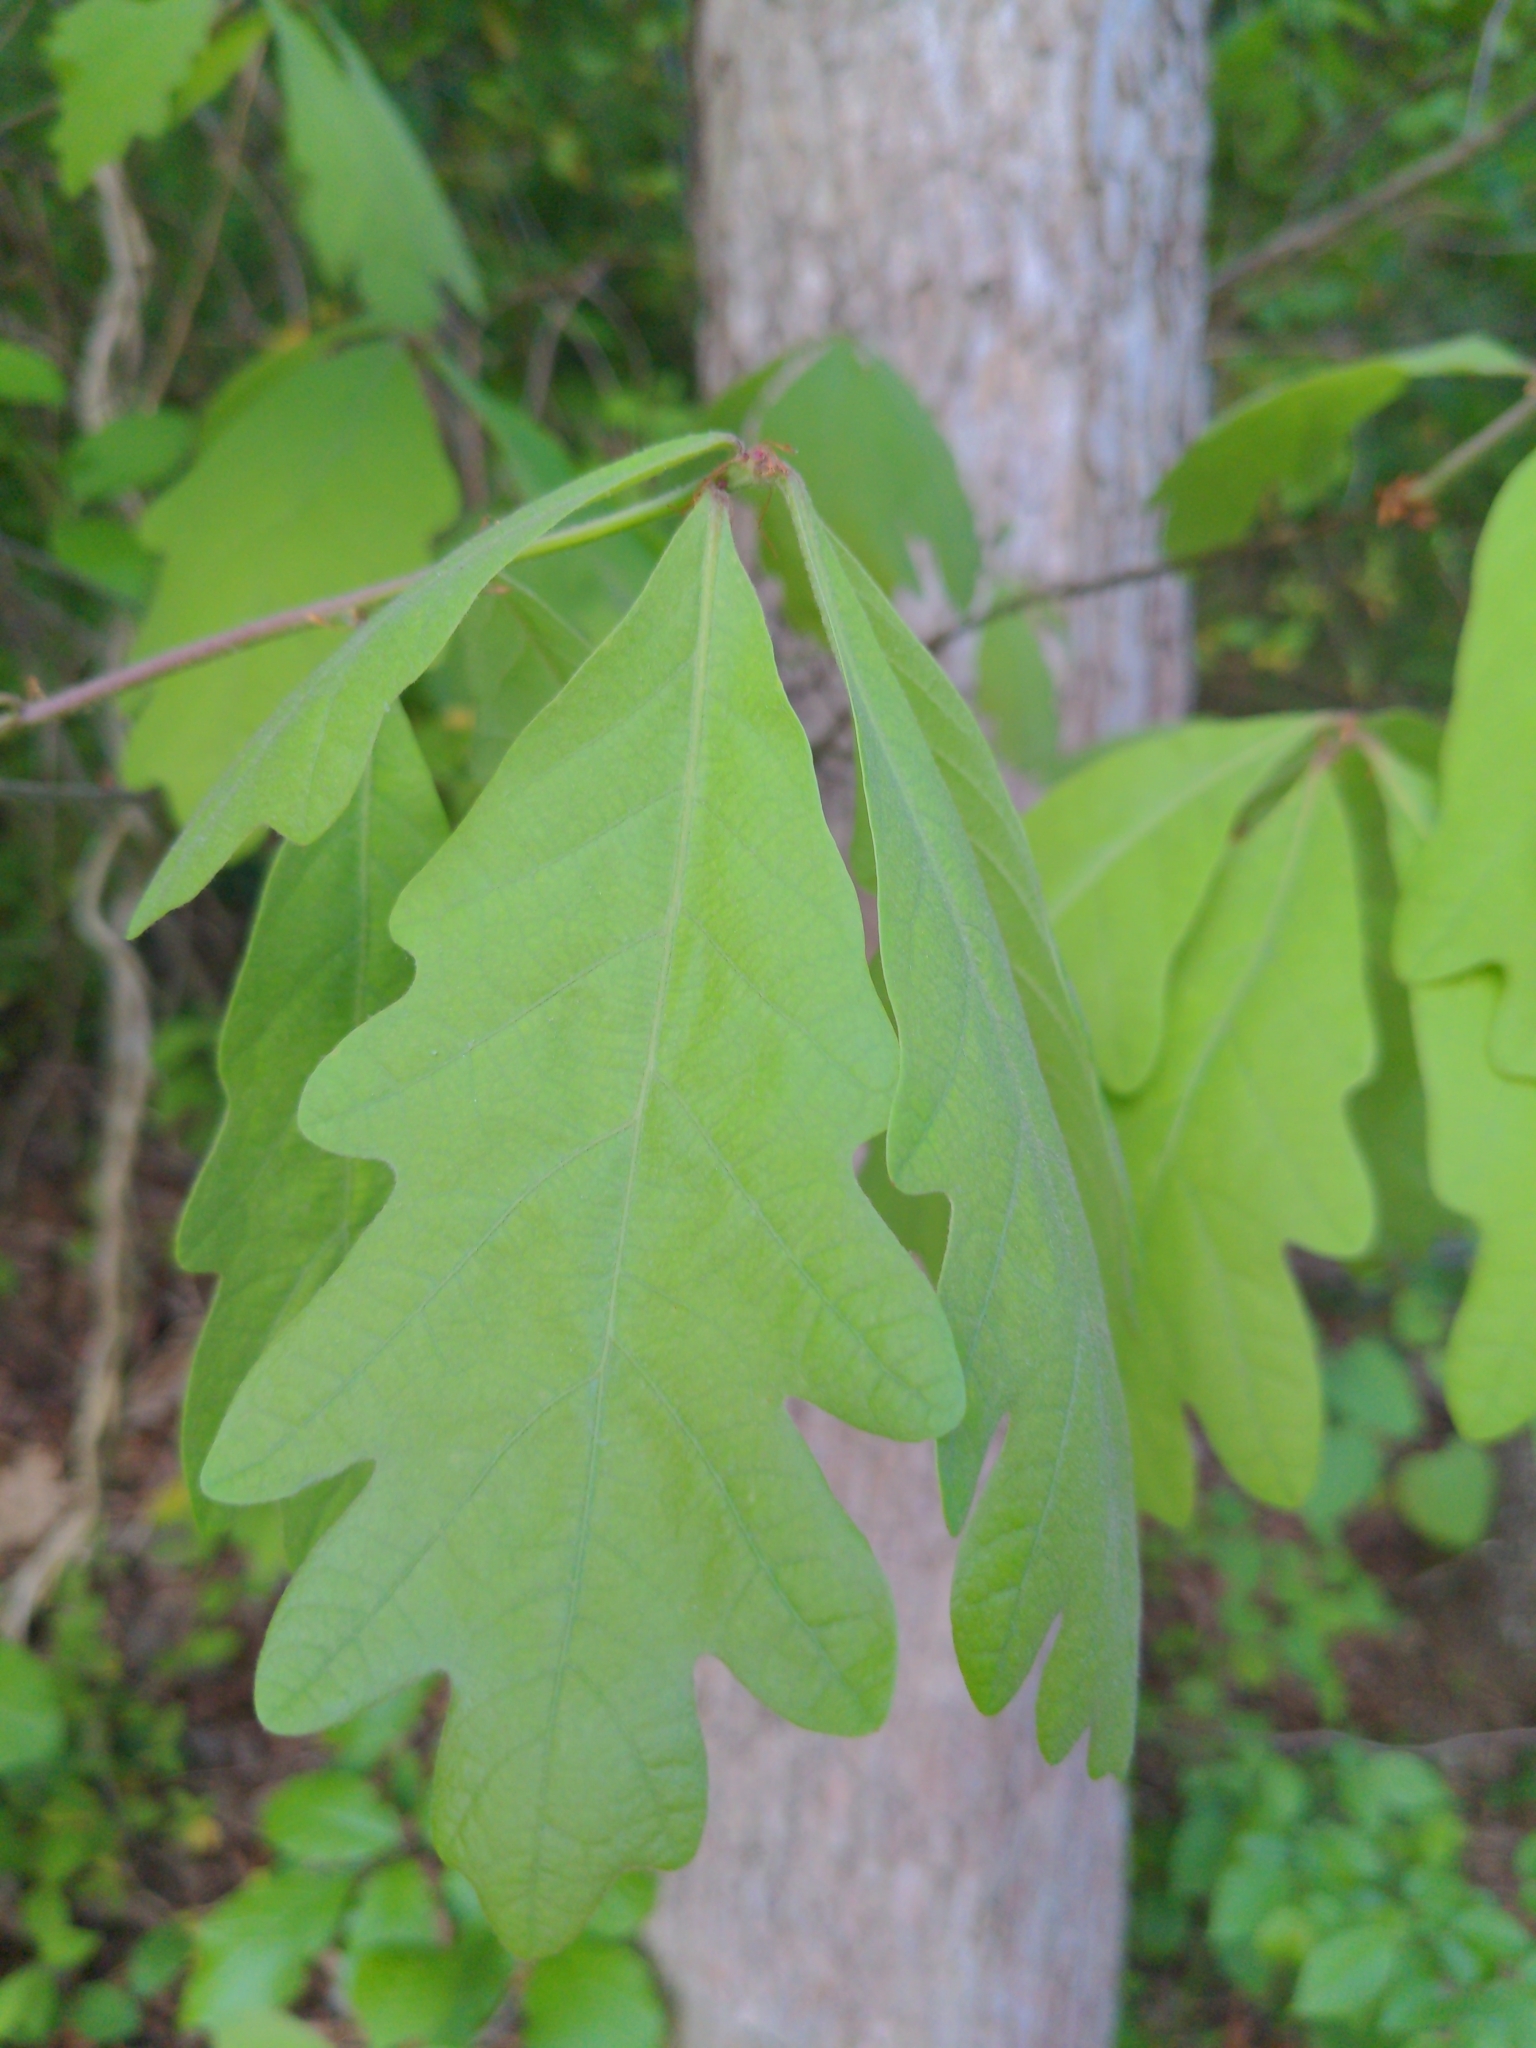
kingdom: Plantae
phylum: Tracheophyta
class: Magnoliopsida
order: Fagales
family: Fagaceae
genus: Quercus
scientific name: Quercus alba
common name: White oak
